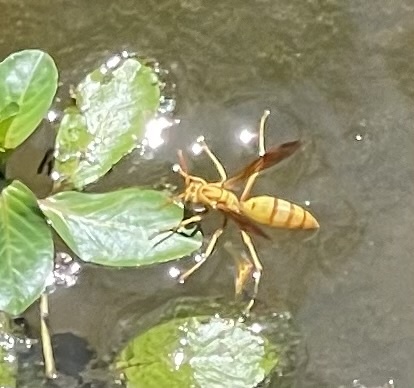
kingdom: Animalia
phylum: Arthropoda
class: Insecta
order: Hymenoptera
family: Eumenidae
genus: Polistes
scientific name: Polistes flavus
